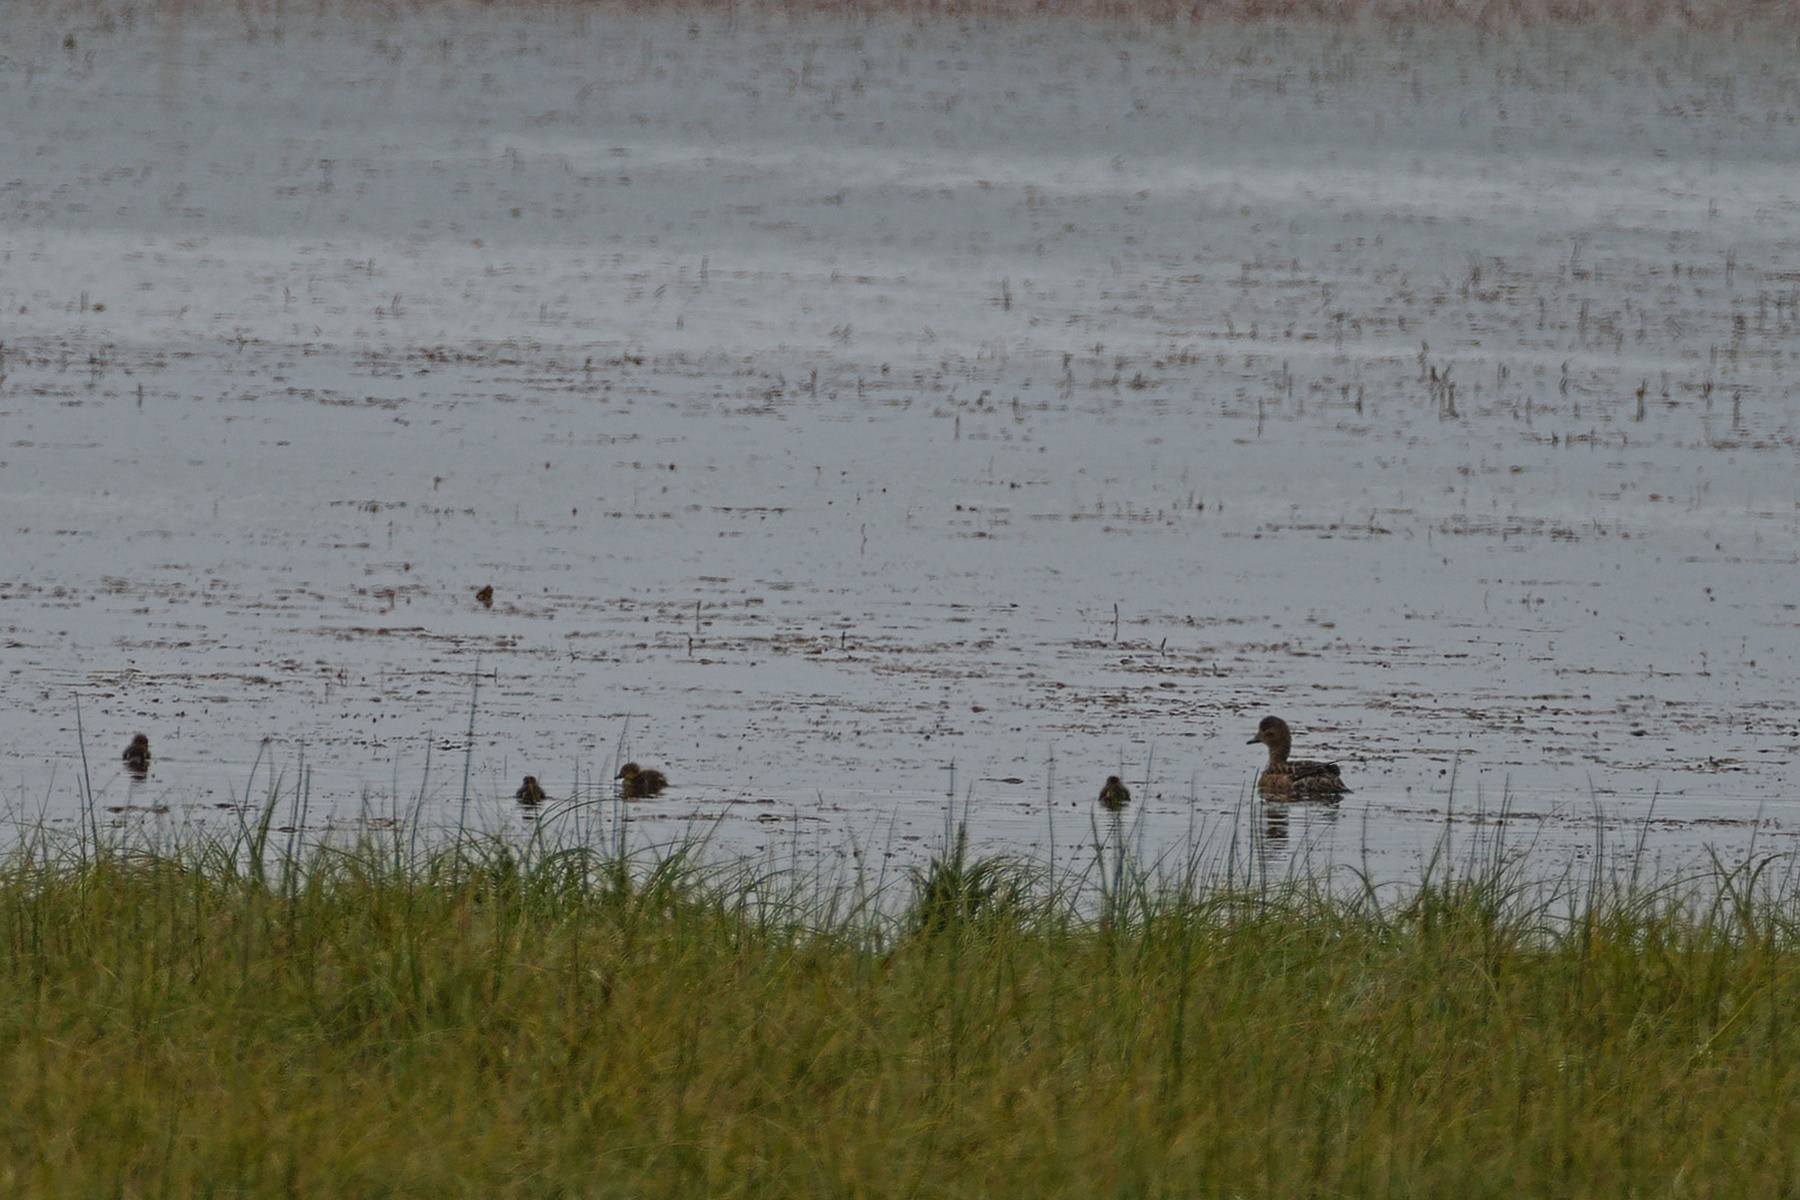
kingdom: Animalia
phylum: Chordata
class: Aves
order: Anseriformes
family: Anatidae
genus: Mareca
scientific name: Mareca penelope
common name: Eurasian wigeon
